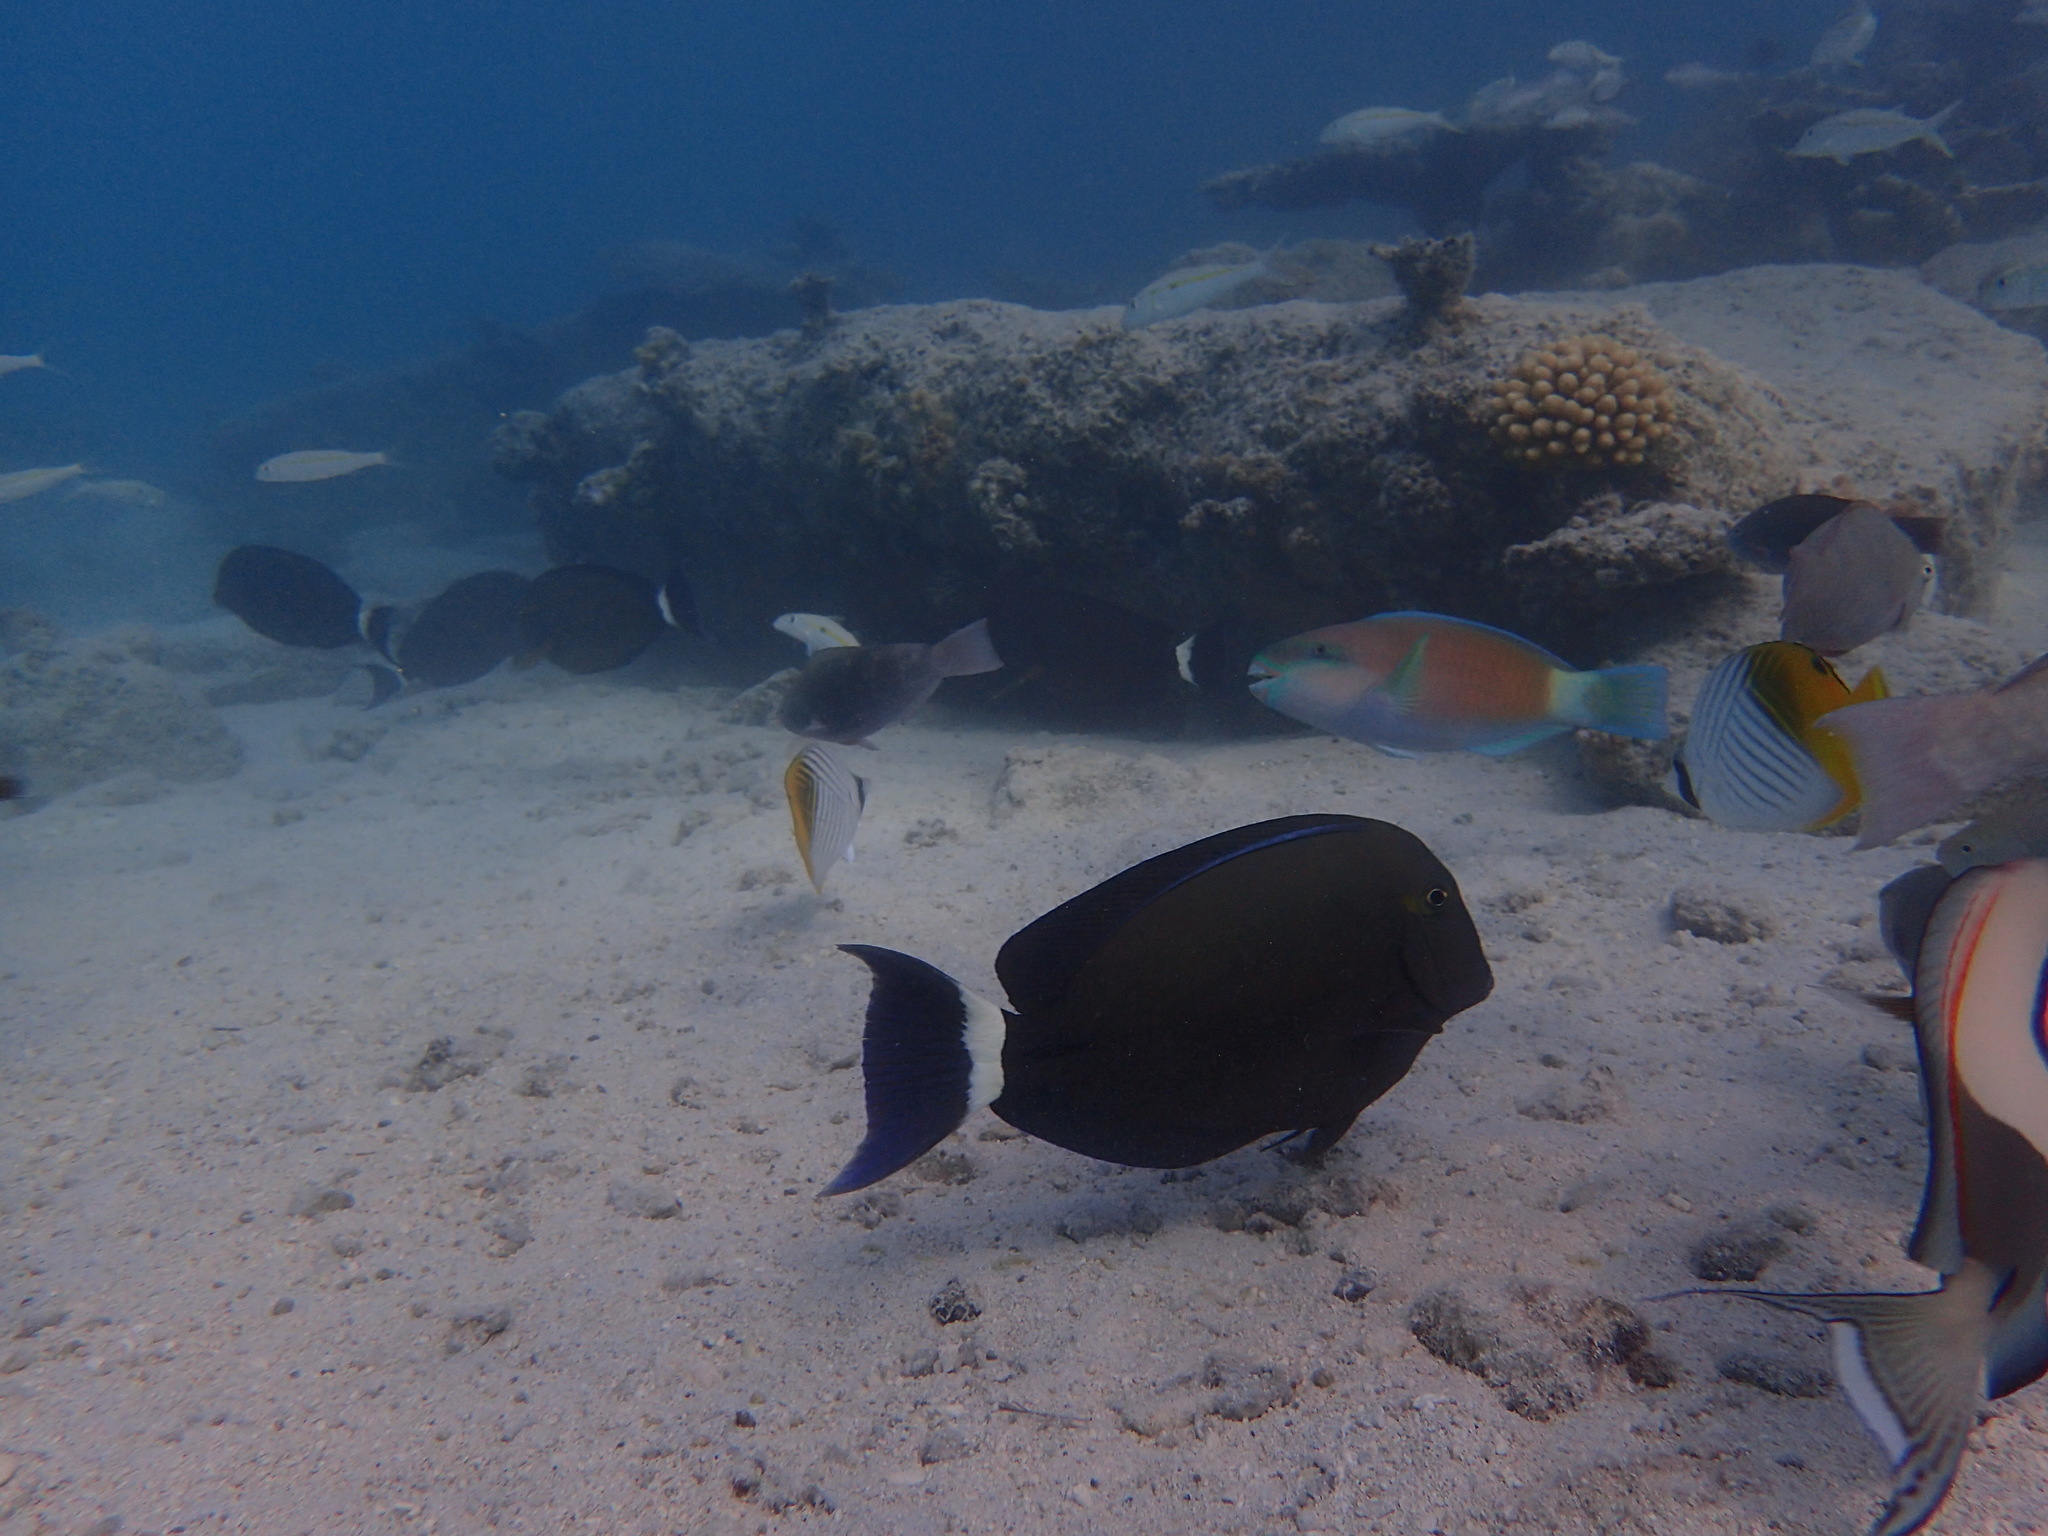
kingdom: Animalia
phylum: Chordata
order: Perciformes
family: Acanthuridae
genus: Acanthurus
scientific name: Acanthurus blochii
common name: Blue-banded pualu
